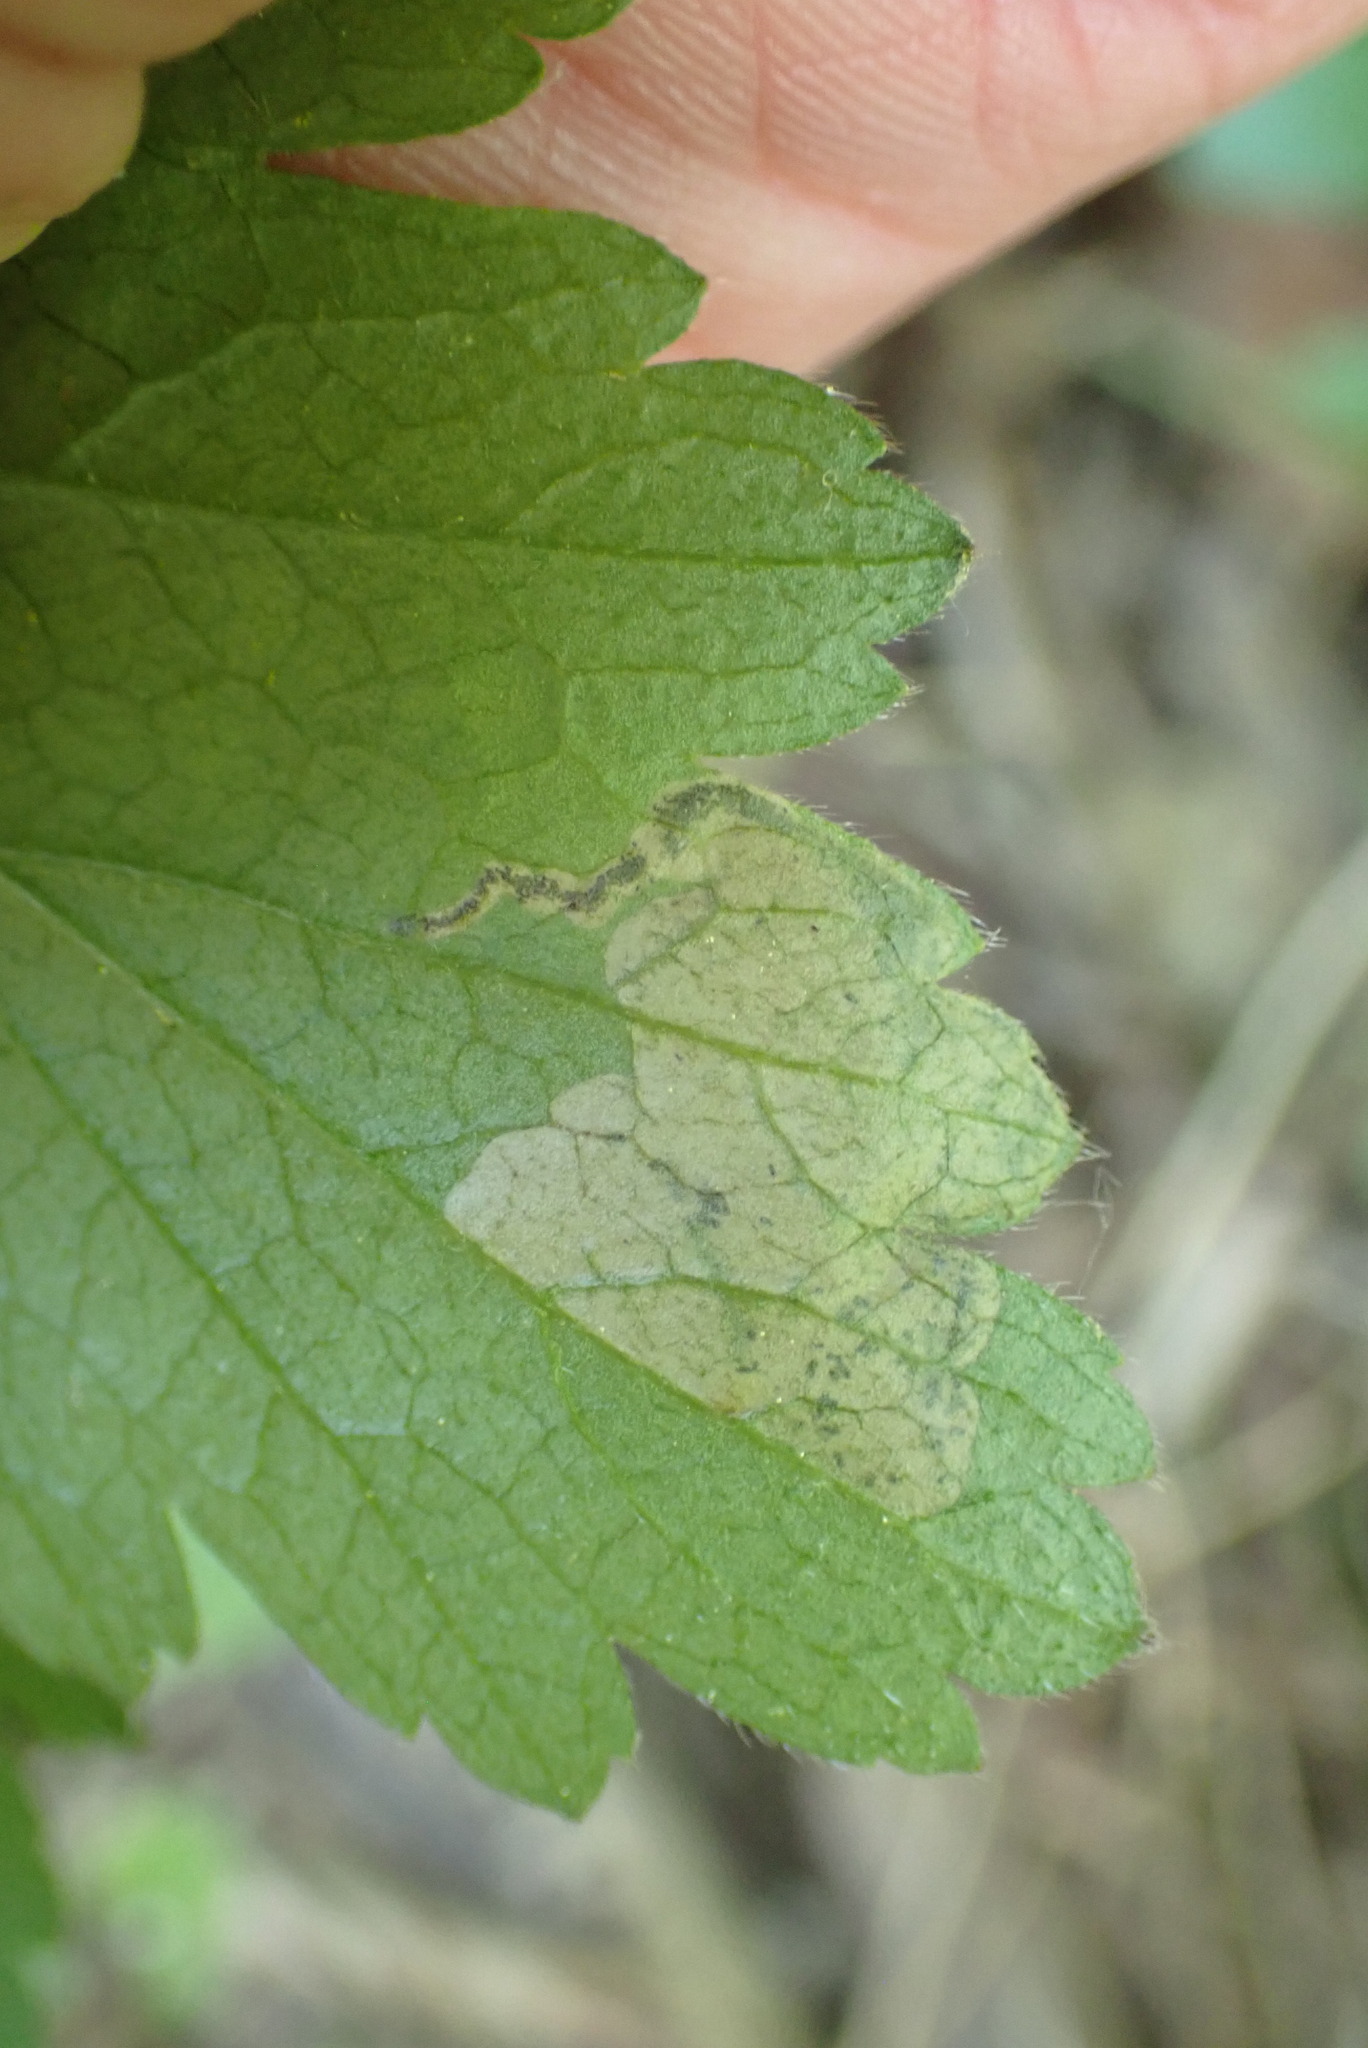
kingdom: Animalia
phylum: Arthropoda
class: Insecta
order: Hymenoptera
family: Tenthredinidae
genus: Metallus
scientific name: Metallus lanceolatus
